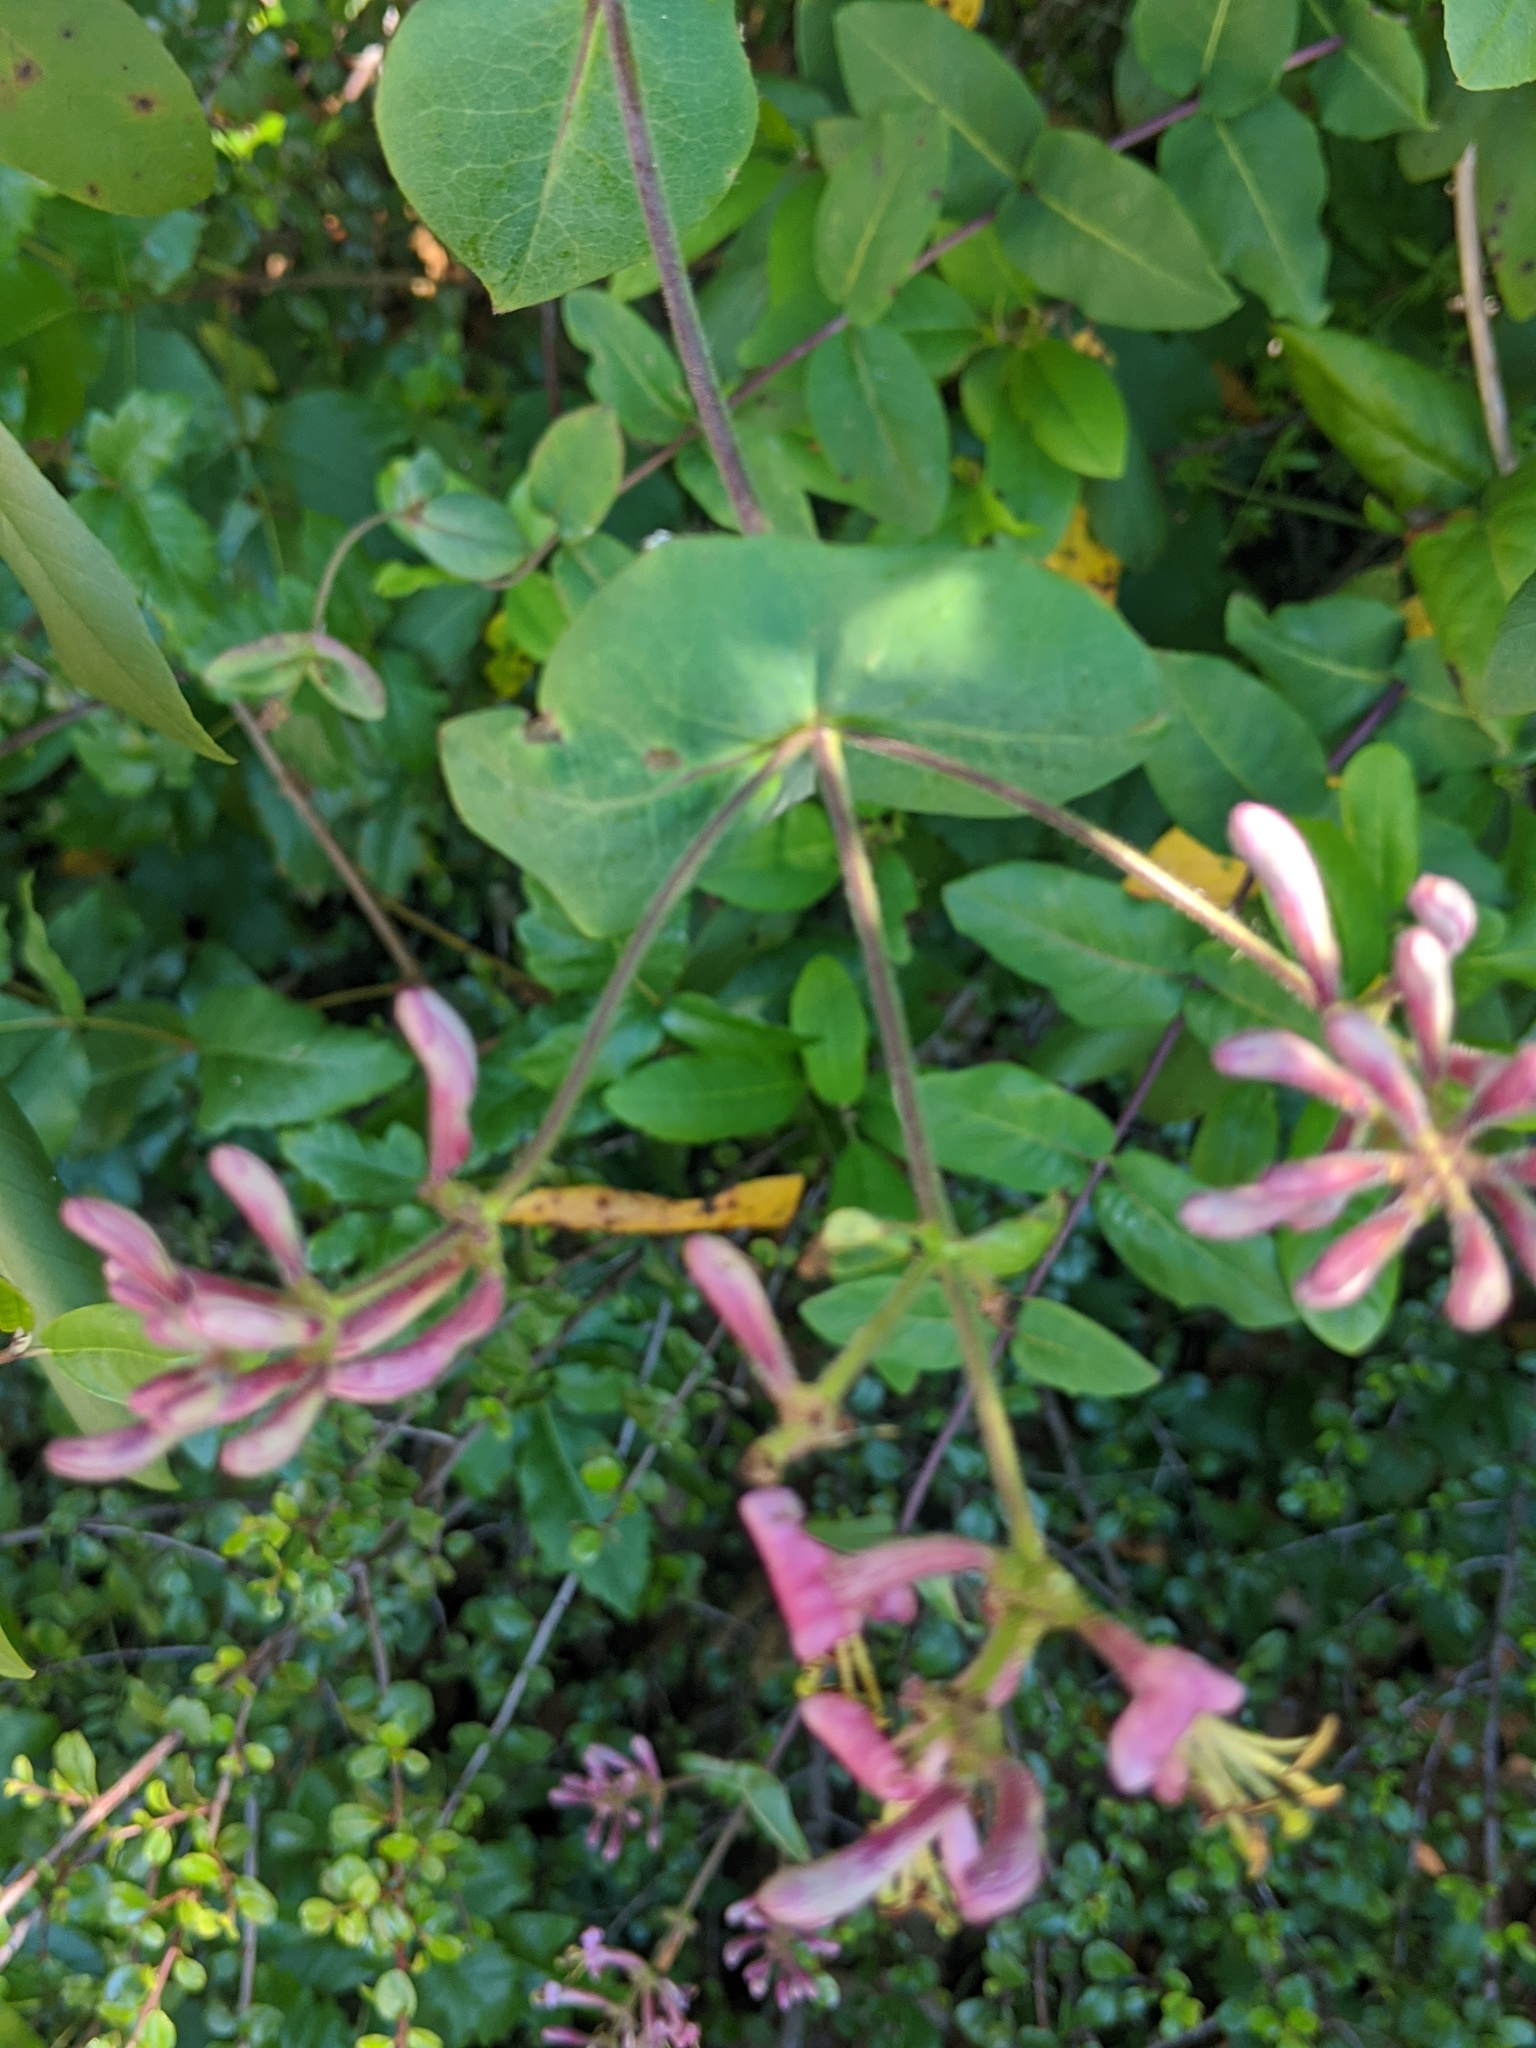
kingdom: Plantae
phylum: Tracheophyta
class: Magnoliopsida
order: Dipsacales
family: Caprifoliaceae
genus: Lonicera
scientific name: Lonicera hispidula
